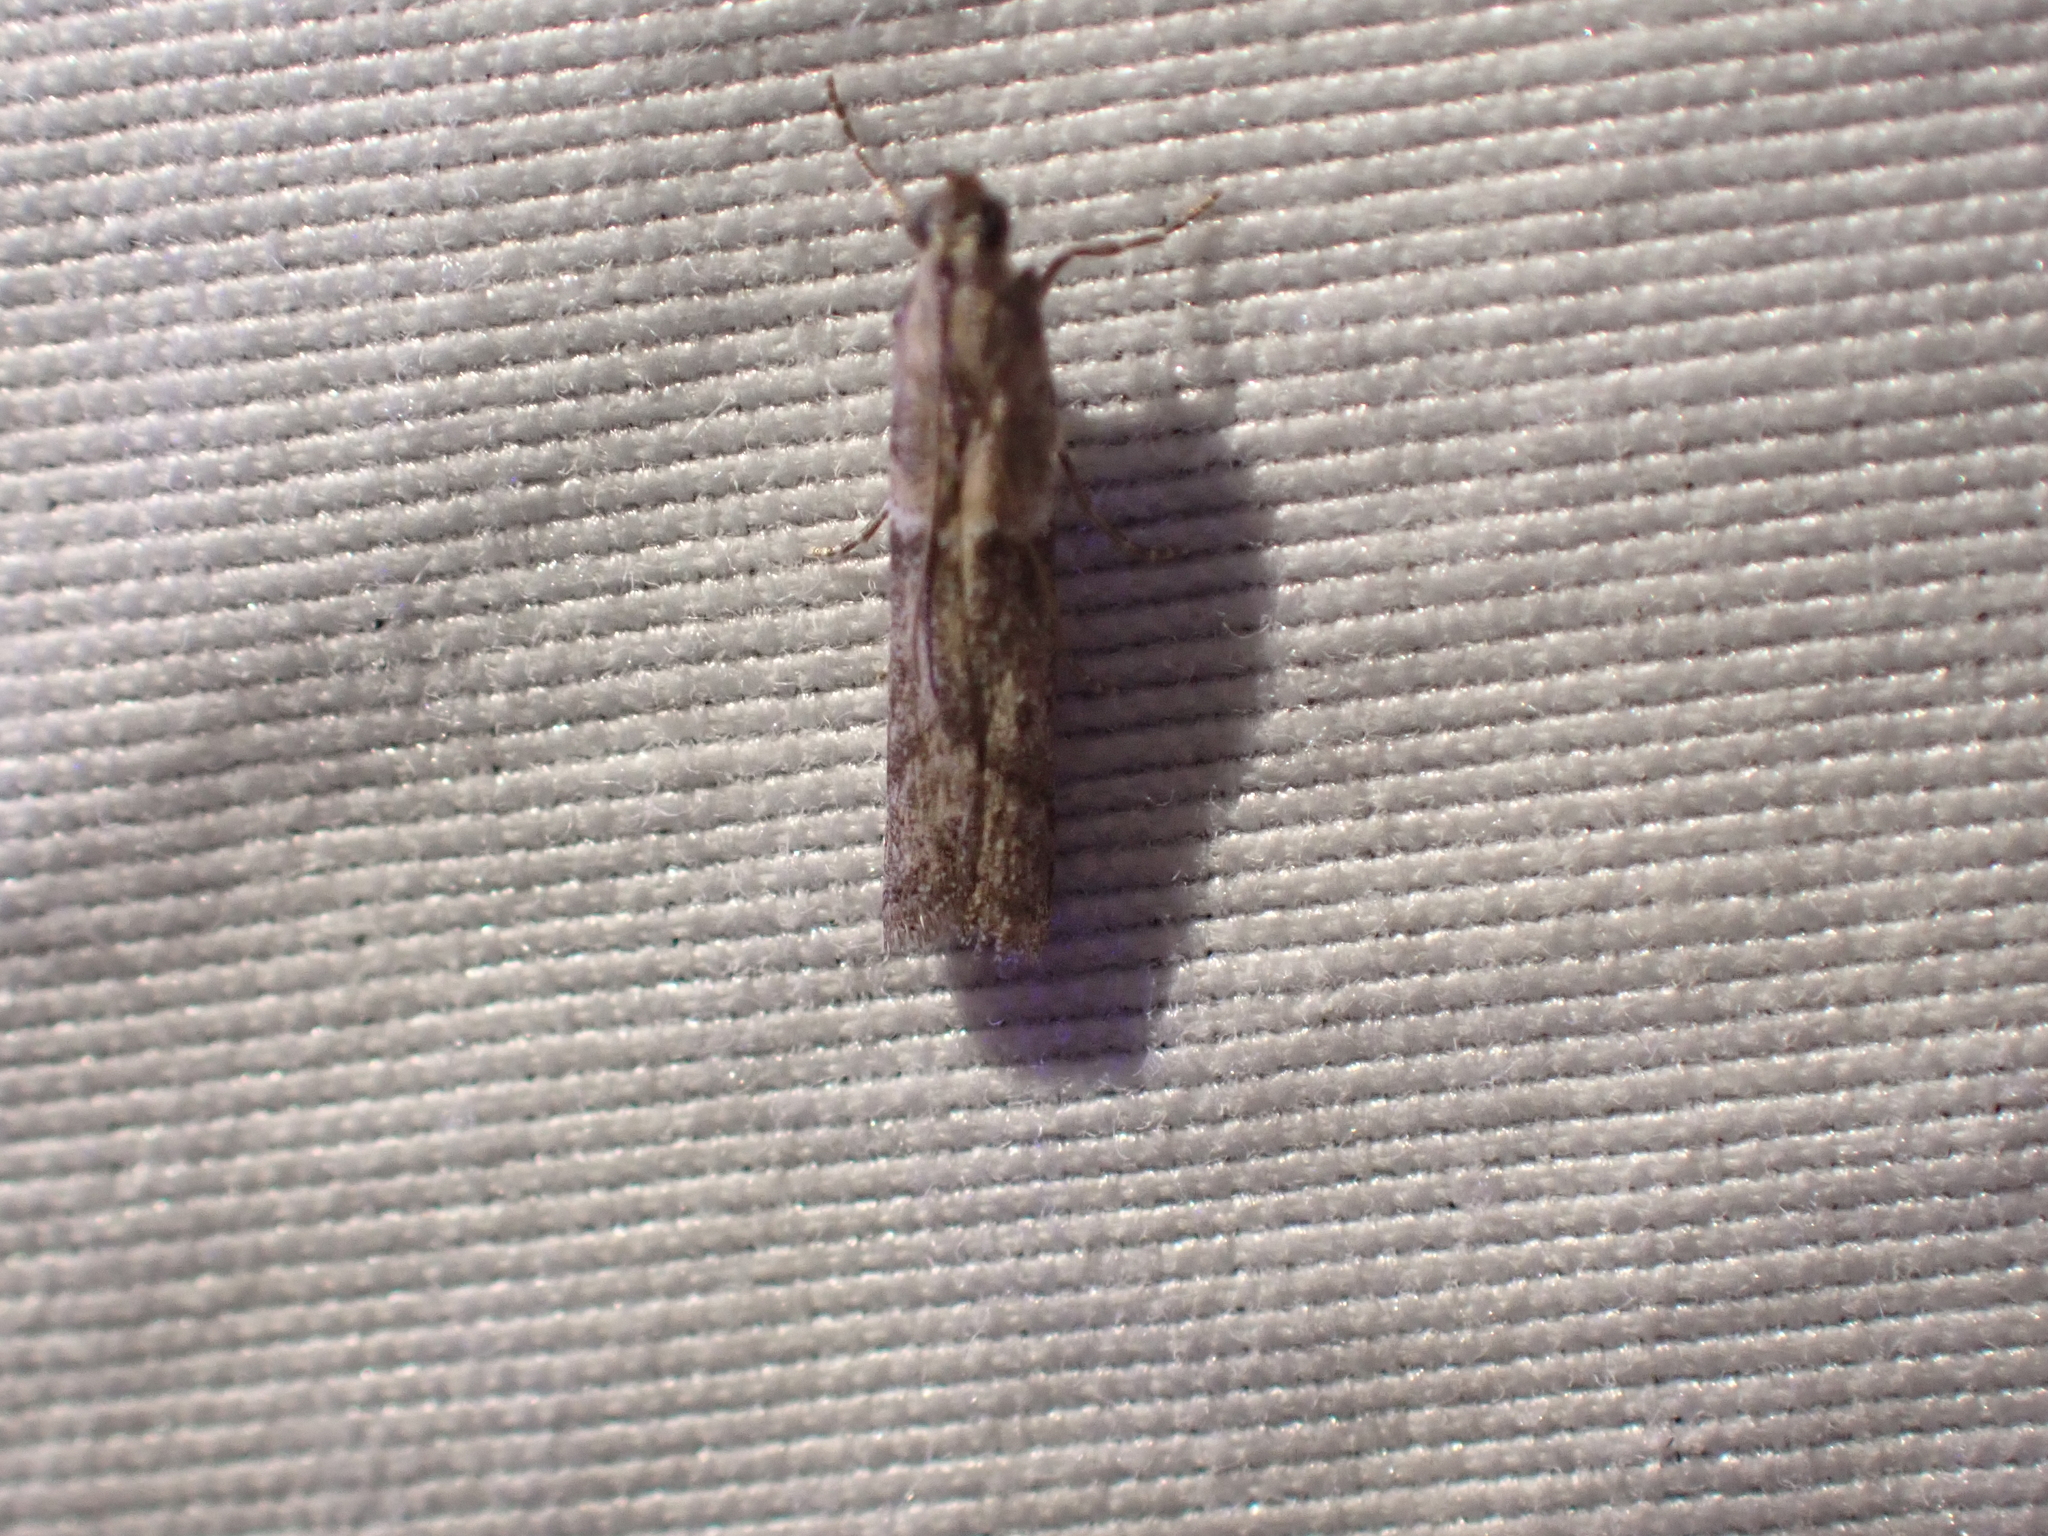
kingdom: Animalia
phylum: Arthropoda
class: Insecta
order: Lepidoptera
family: Pyralidae
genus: Ephestiodes
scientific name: Ephestiodes gilvescentella
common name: Moth
